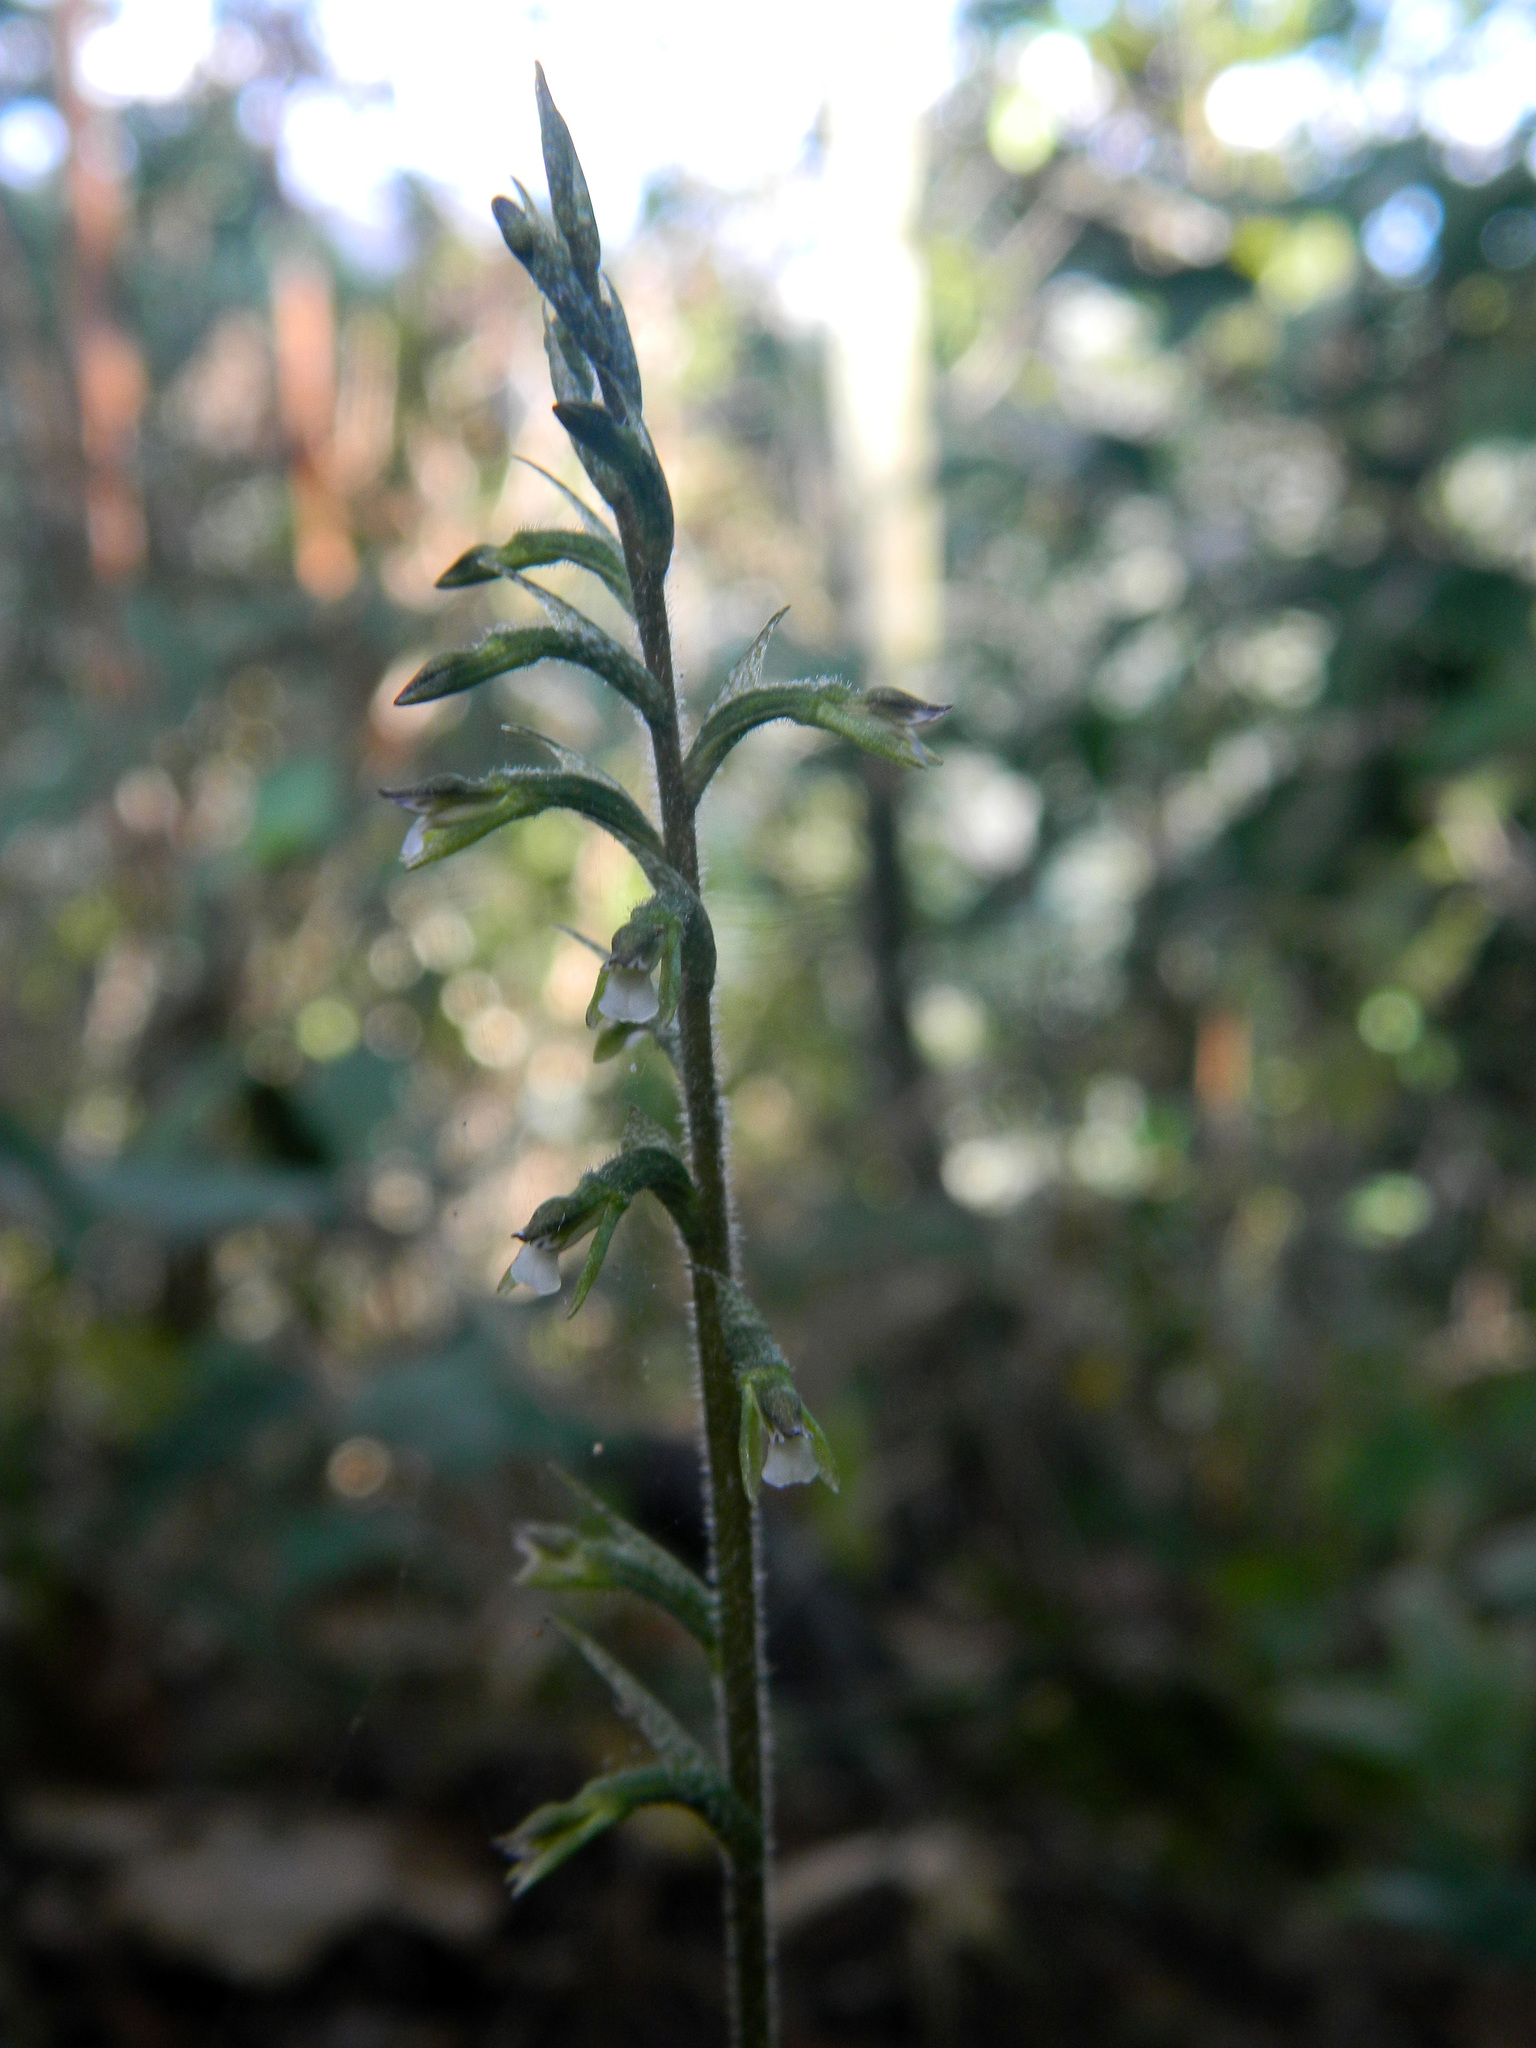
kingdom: Plantae
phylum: Tracheophyta
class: Liliopsida
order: Asparagales
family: Orchidaceae
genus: Cyclopogon
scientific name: Cyclopogon cranichoides
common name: Green ladies' tresses
